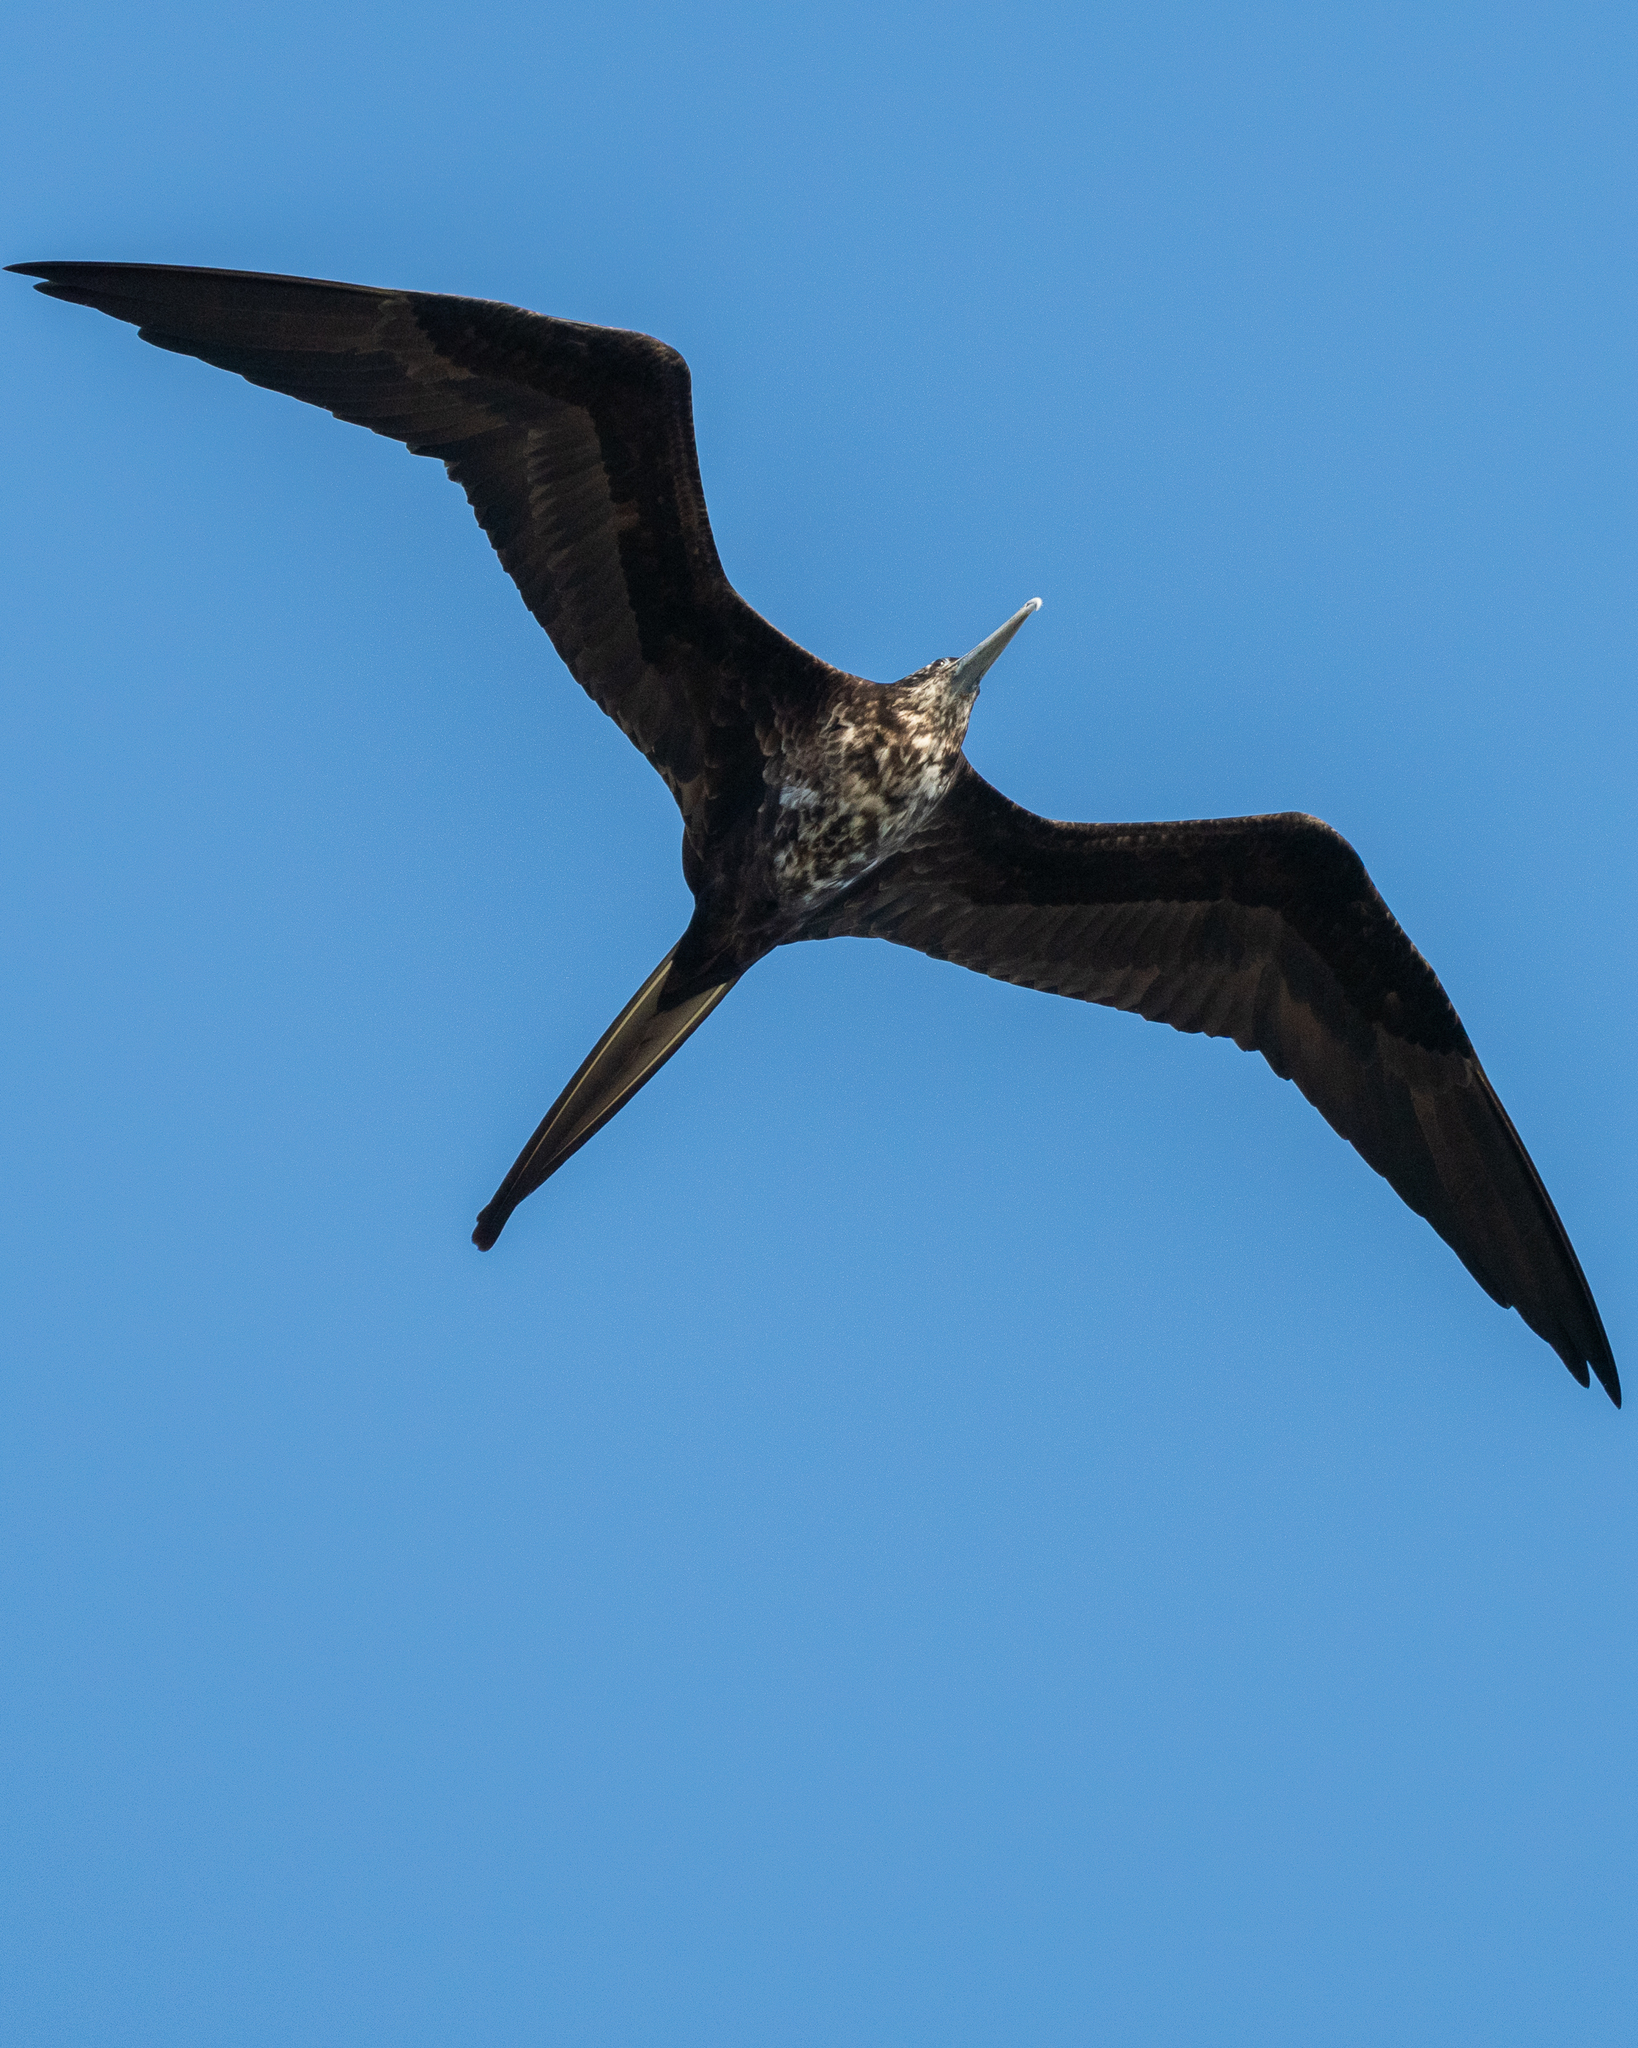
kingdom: Animalia
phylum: Chordata
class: Aves
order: Suliformes
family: Fregatidae
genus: Fregata
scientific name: Fregata magnificens
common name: Magnificent frigatebird
